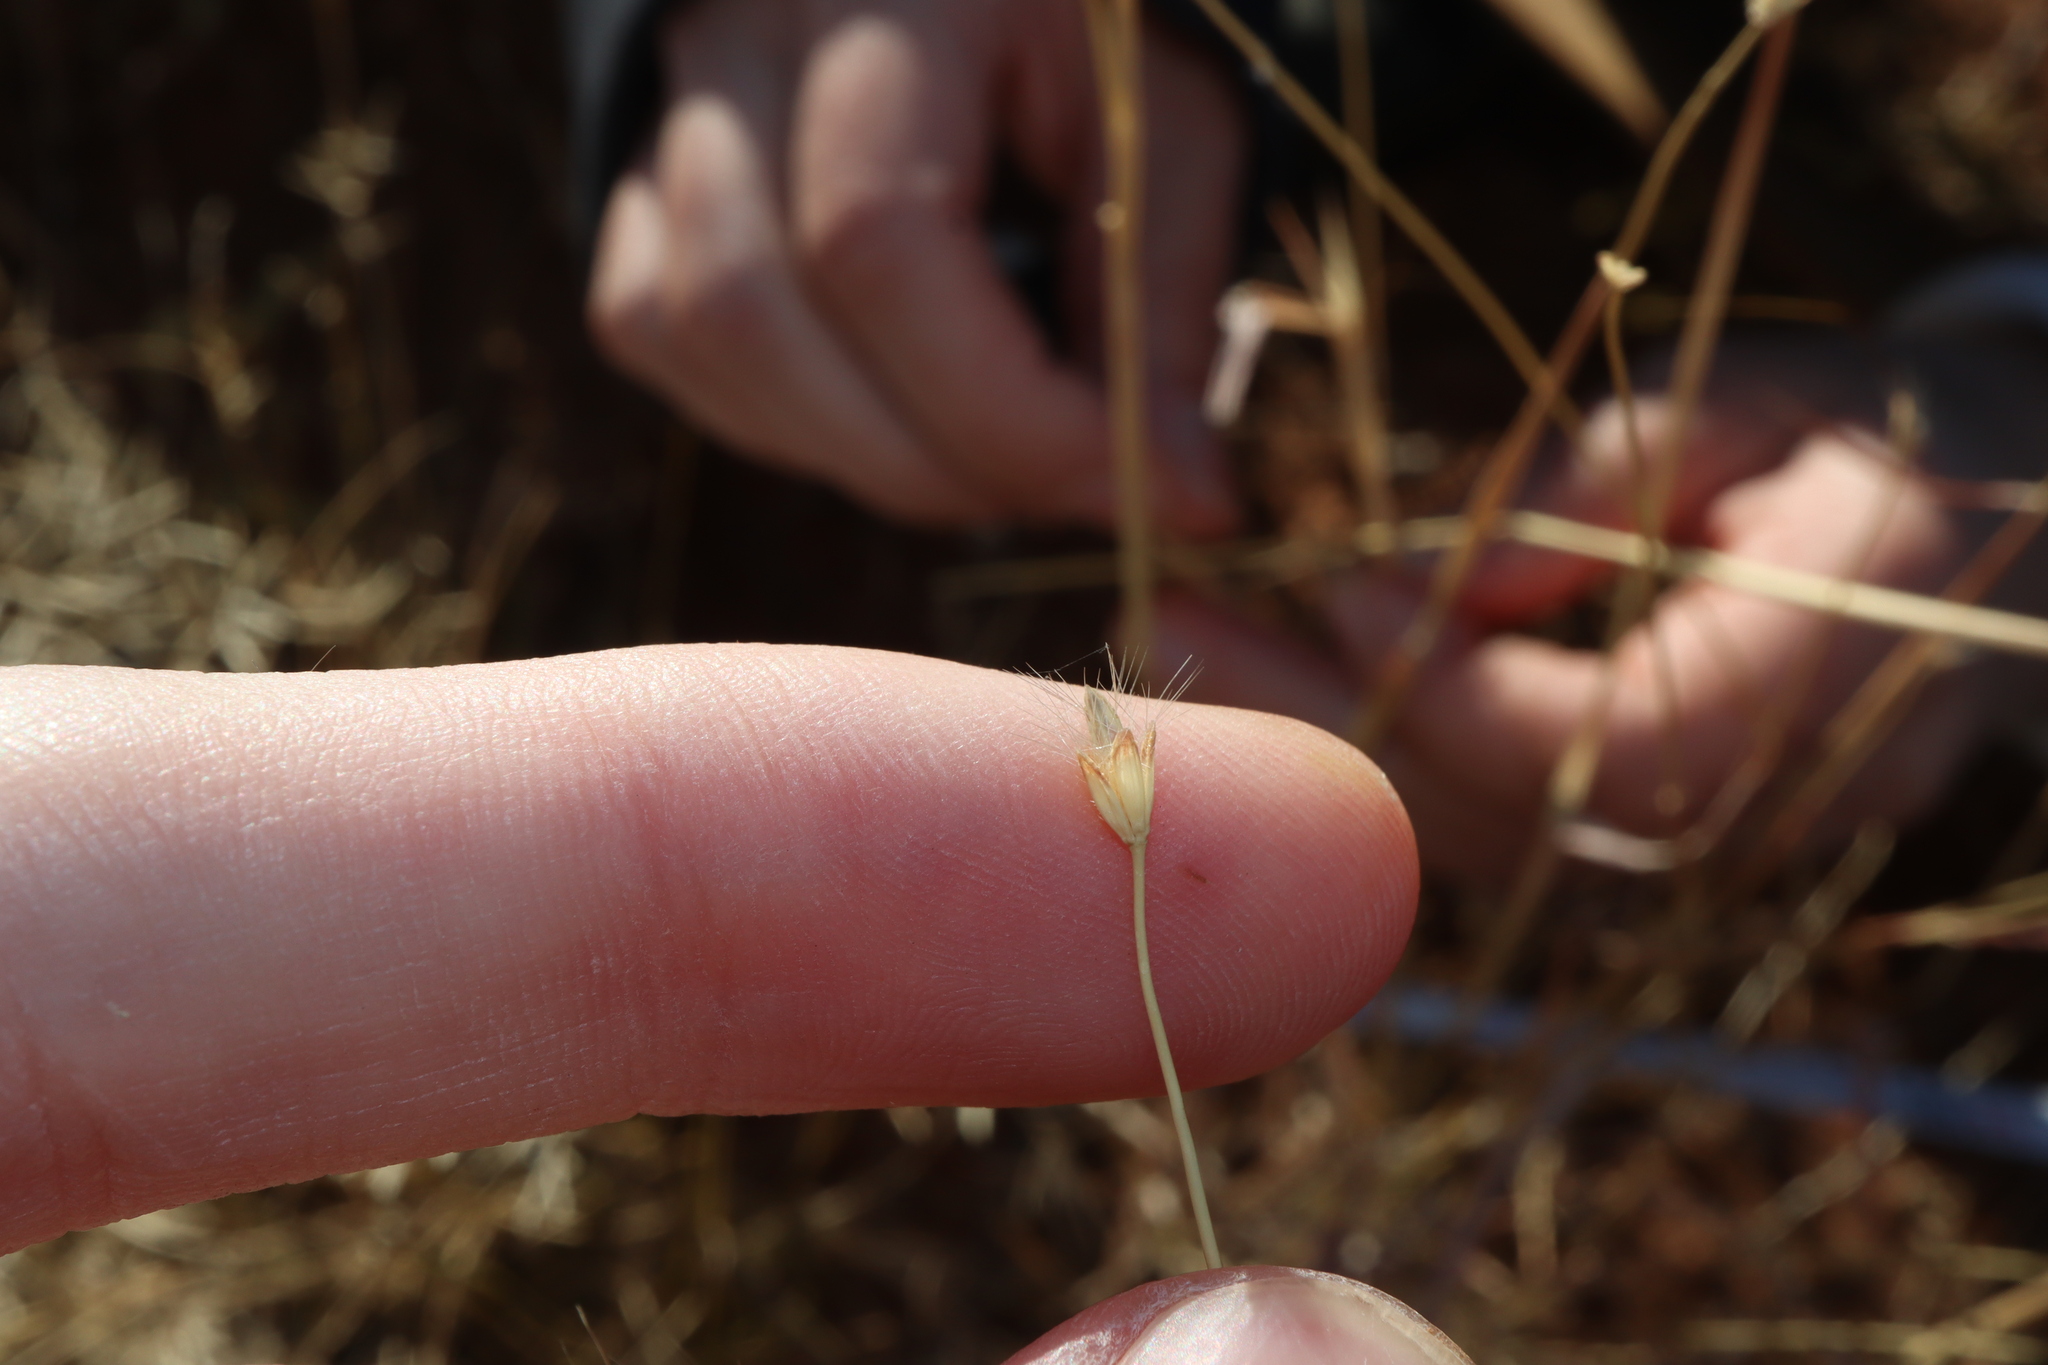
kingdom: Plantae
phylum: Tracheophyta
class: Liliopsida
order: Poales
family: Poaceae
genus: Dichanthium
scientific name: Dichanthium sericeum
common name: Silky bluestem
